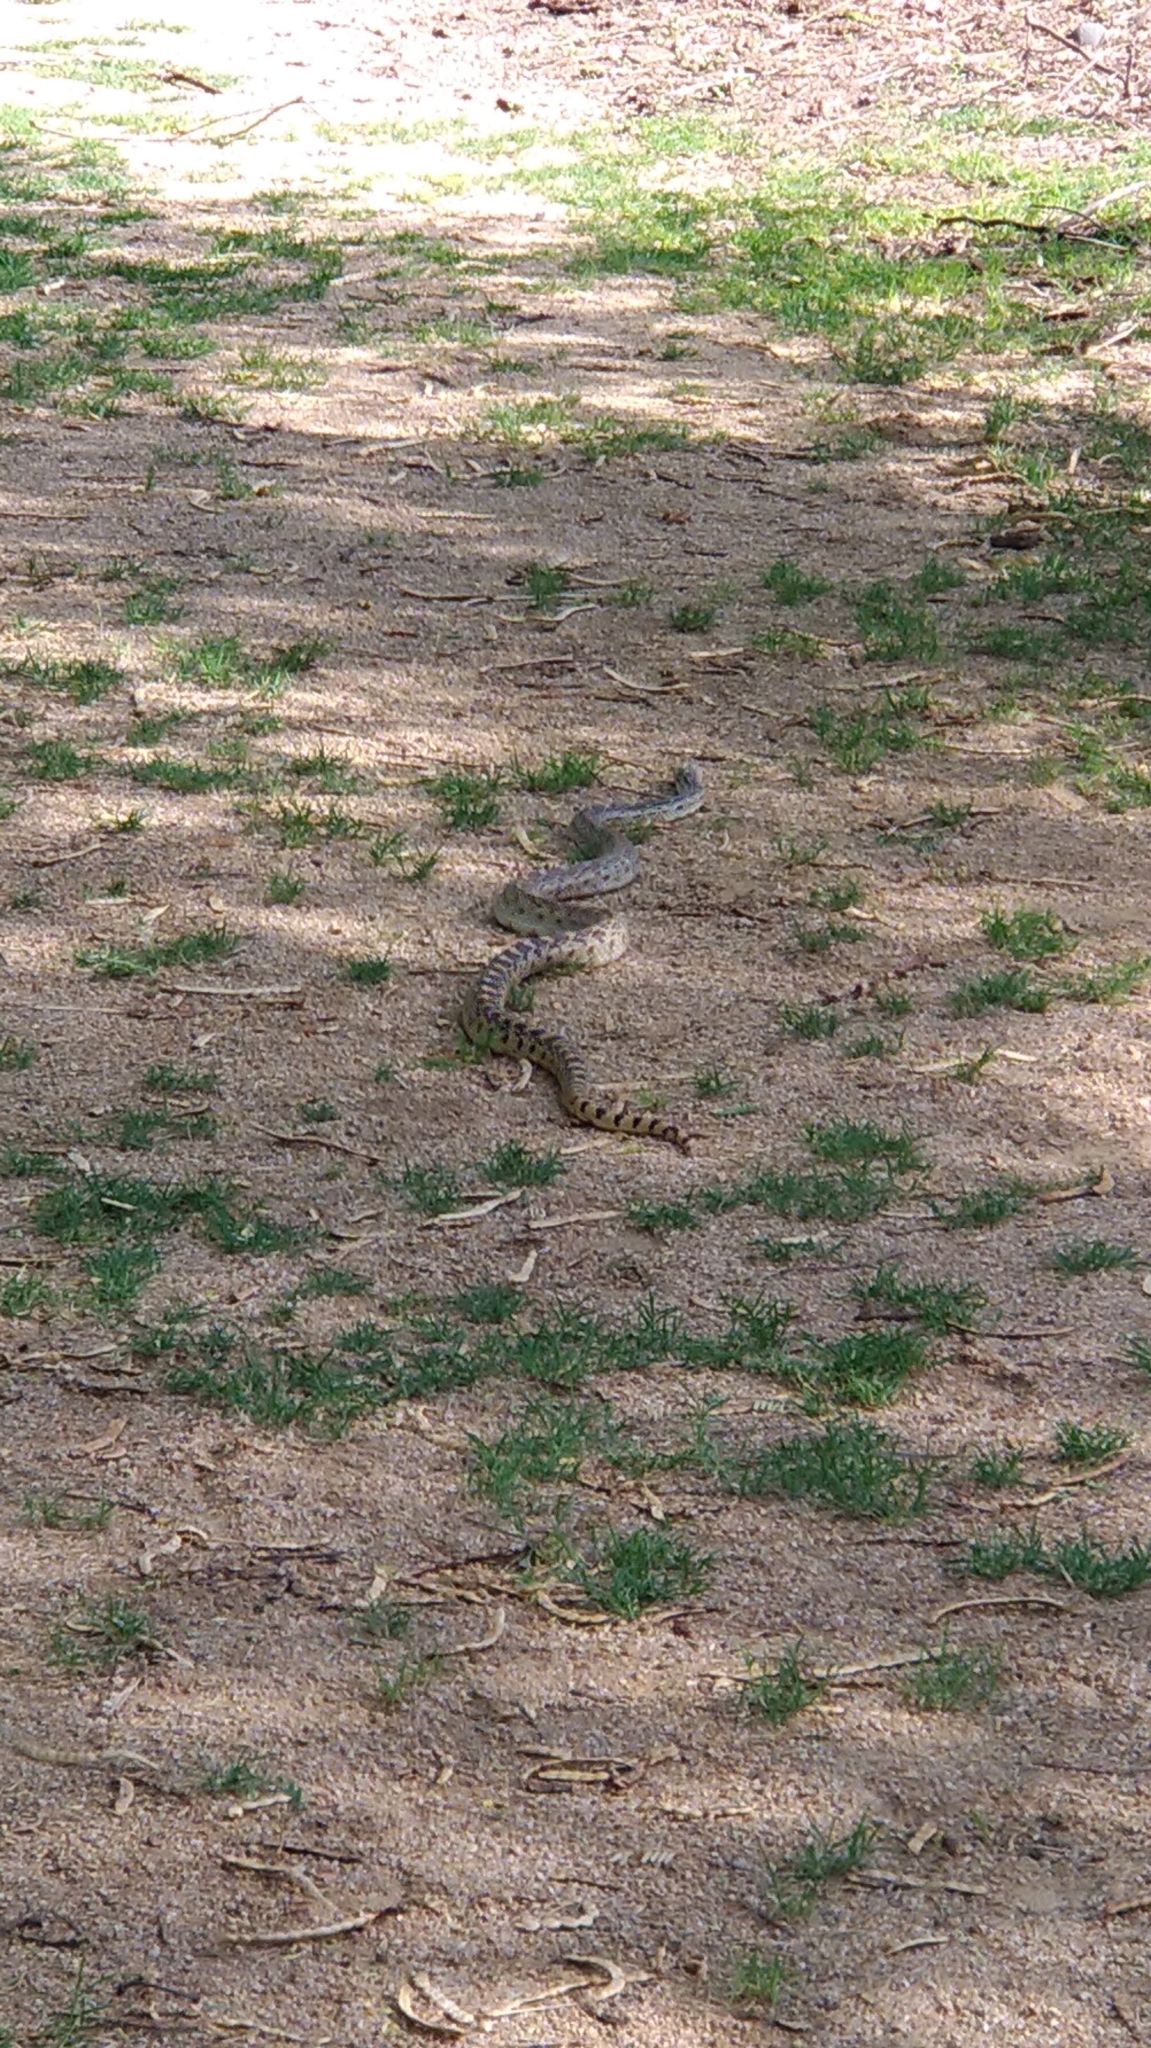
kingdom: Animalia
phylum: Chordata
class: Squamata
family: Colubridae
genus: Pituophis
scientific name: Pituophis catenifer
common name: Gopher snake
